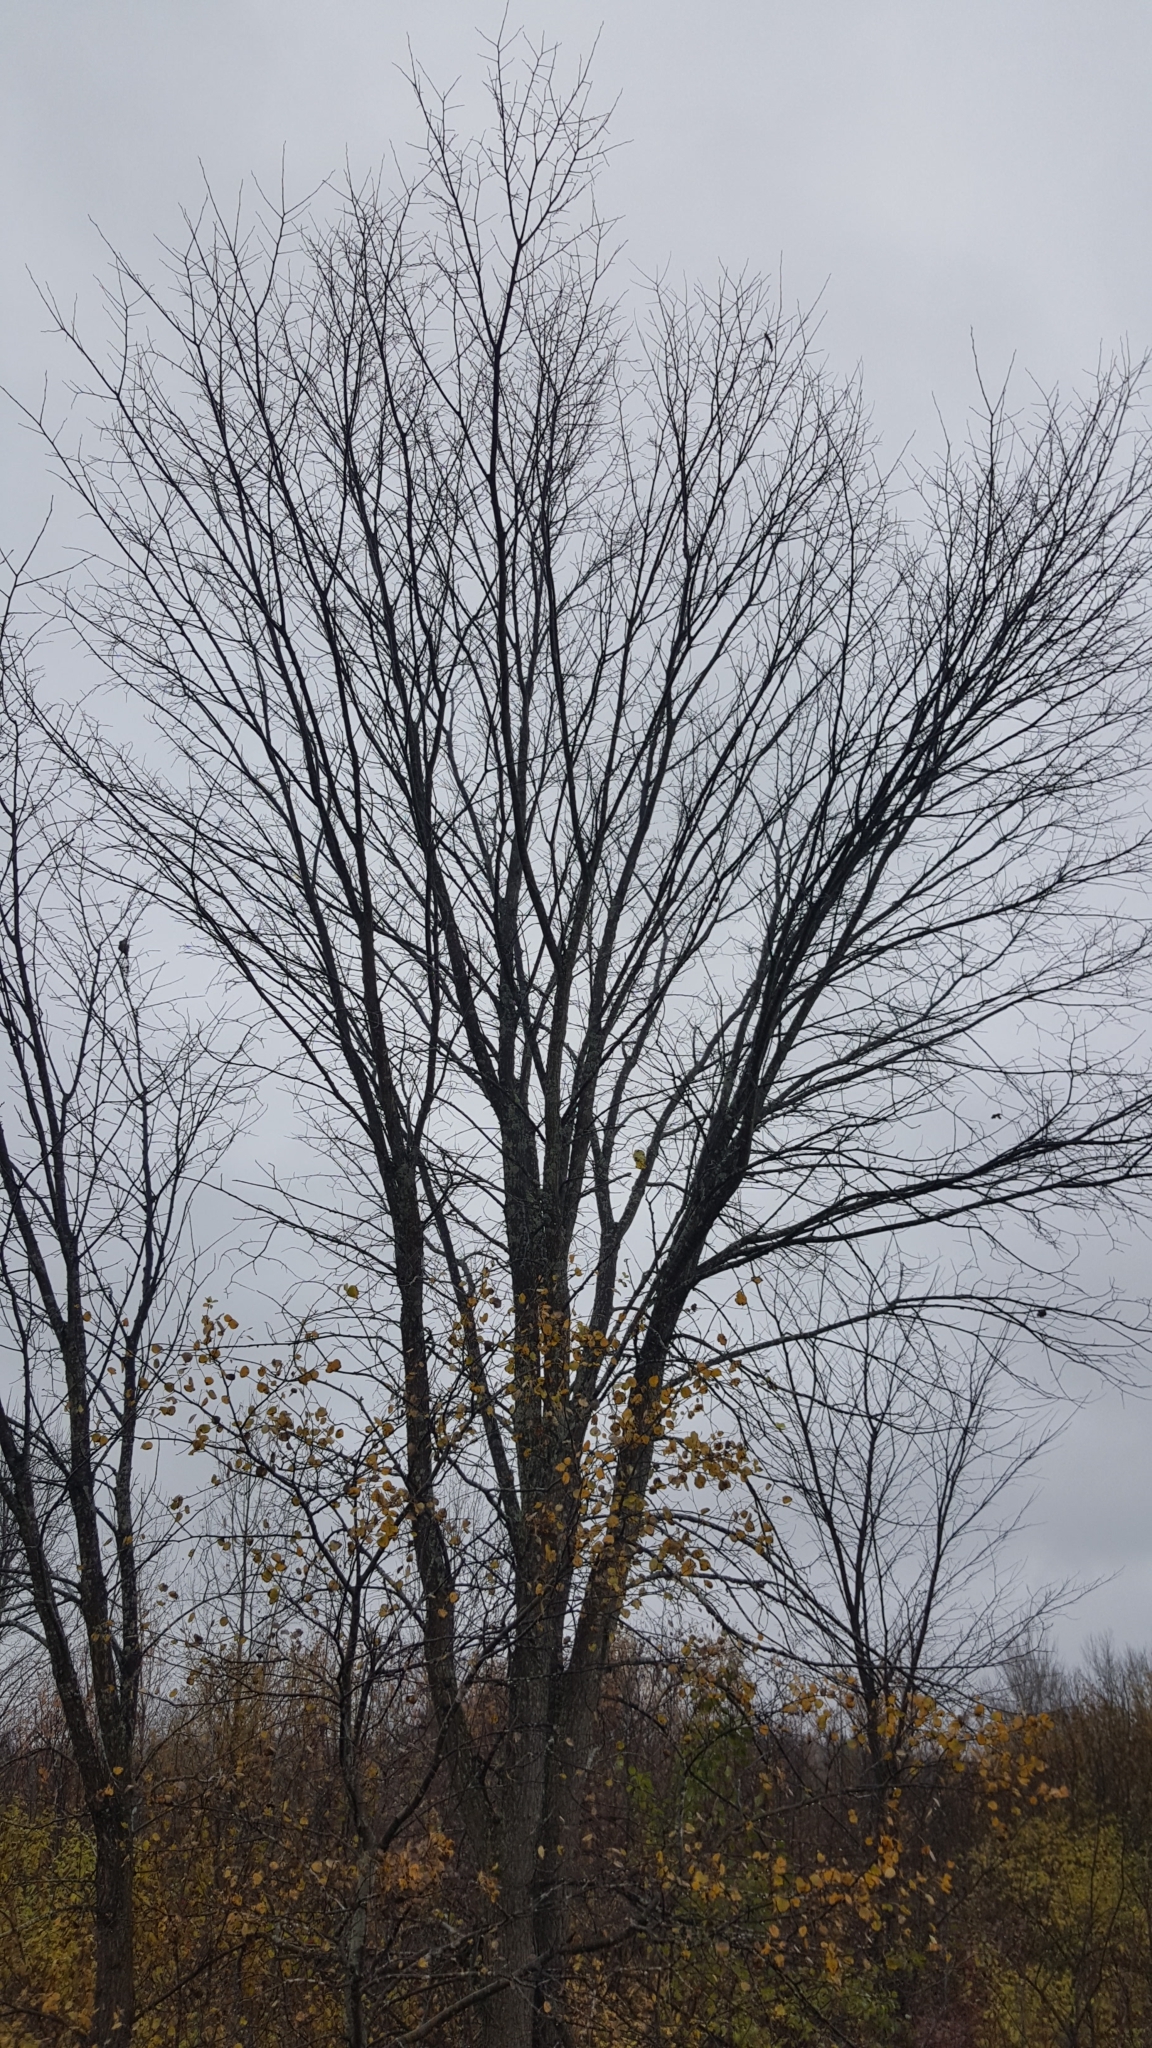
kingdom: Plantae
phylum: Tracheophyta
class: Magnoliopsida
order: Rosales
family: Ulmaceae
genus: Ulmus
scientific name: Ulmus americana
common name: American elm
